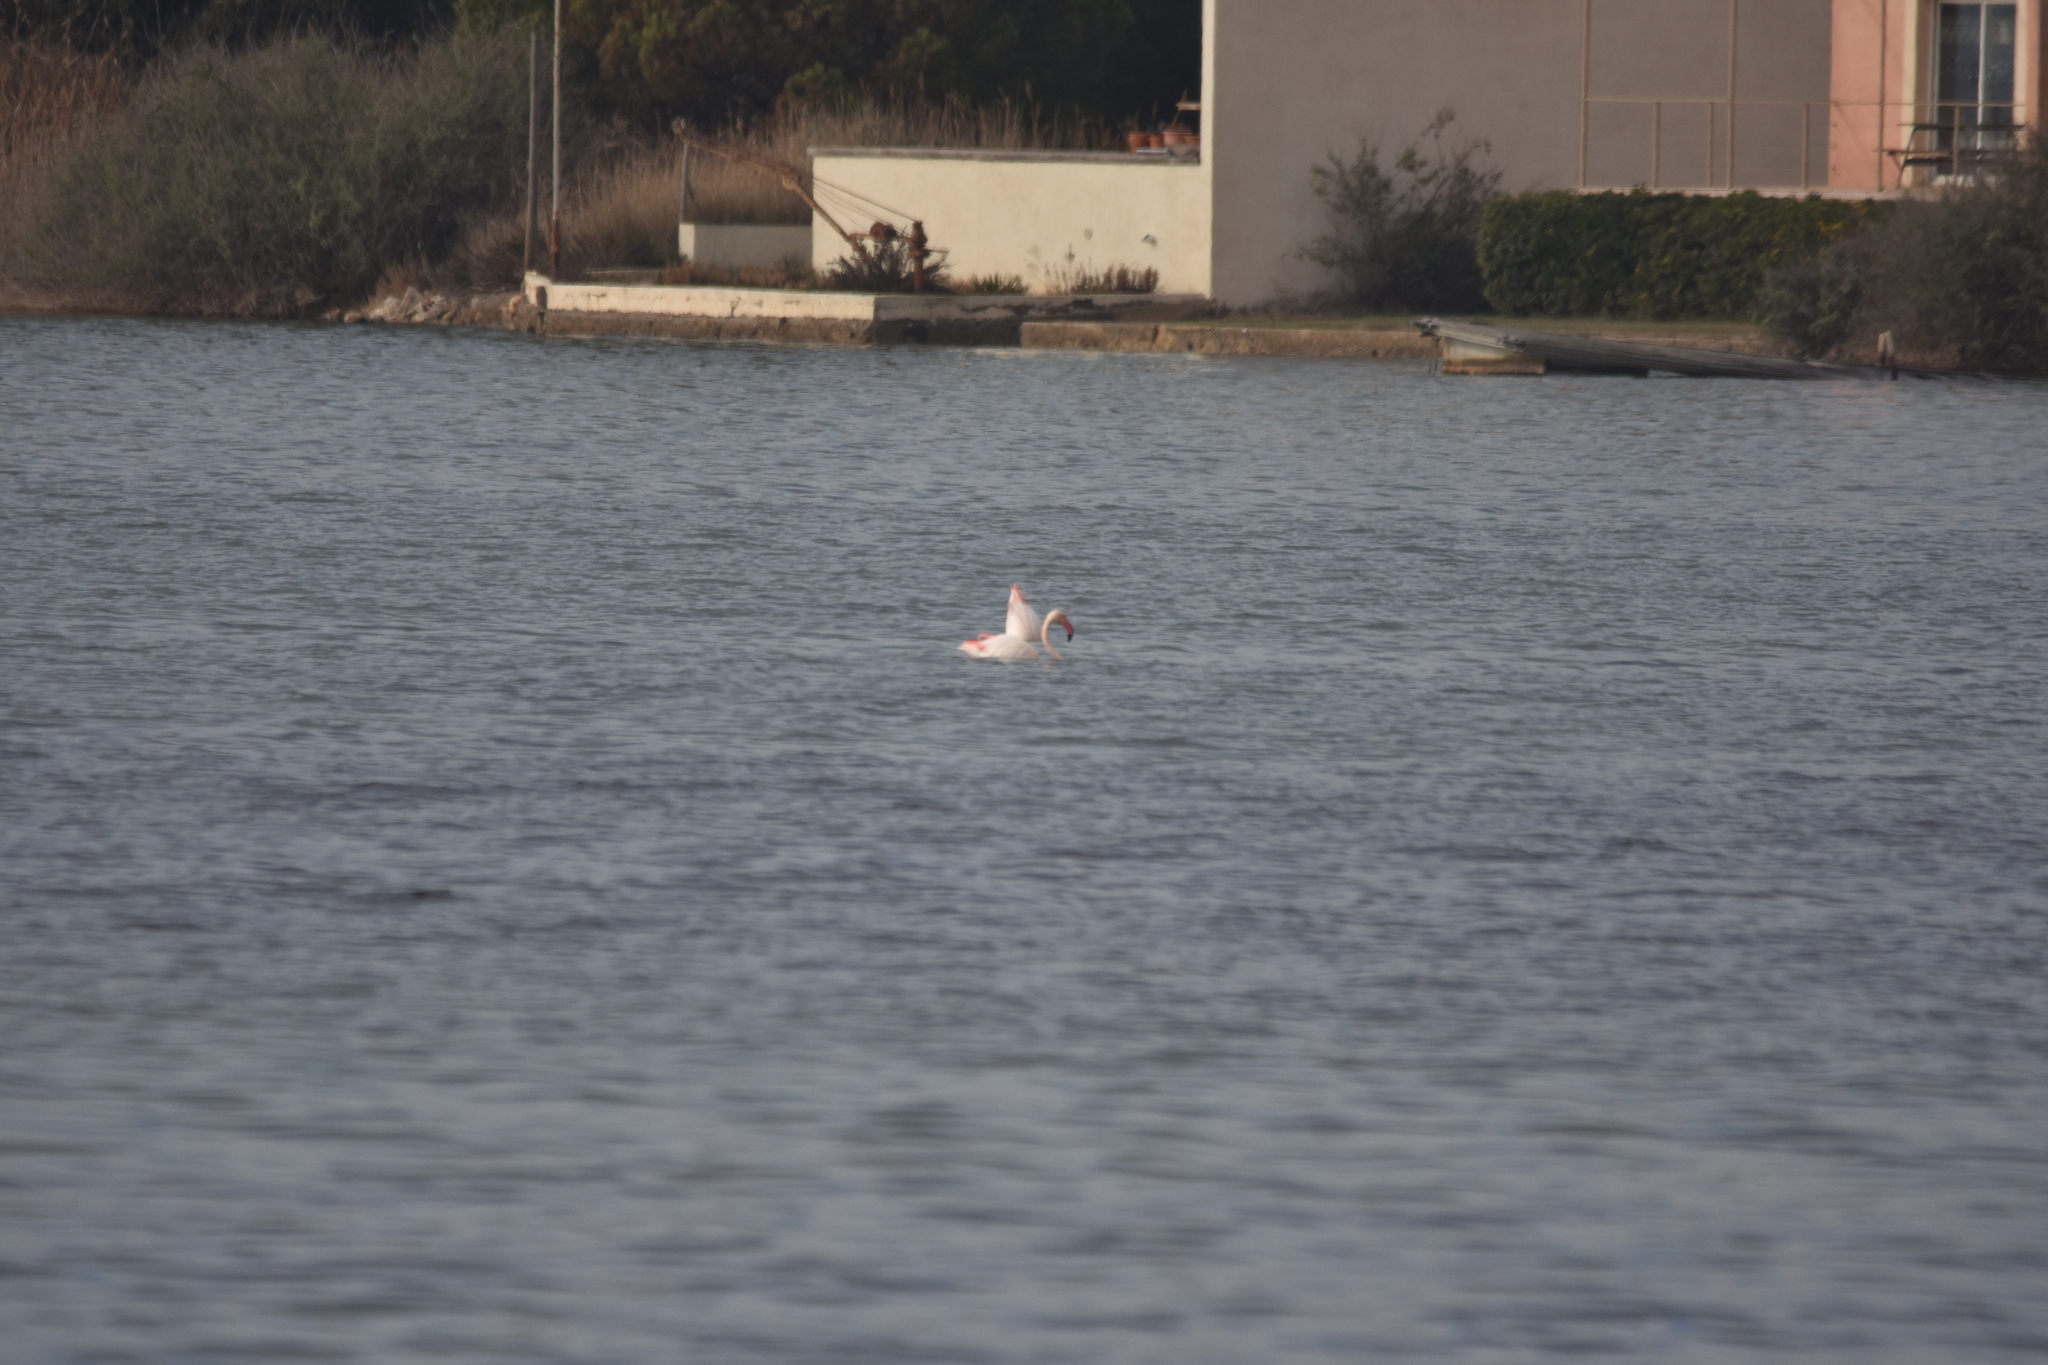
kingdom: Animalia
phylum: Chordata
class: Aves
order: Phoenicopteriformes
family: Phoenicopteridae
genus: Phoenicopterus
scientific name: Phoenicopterus roseus
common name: Greater flamingo
